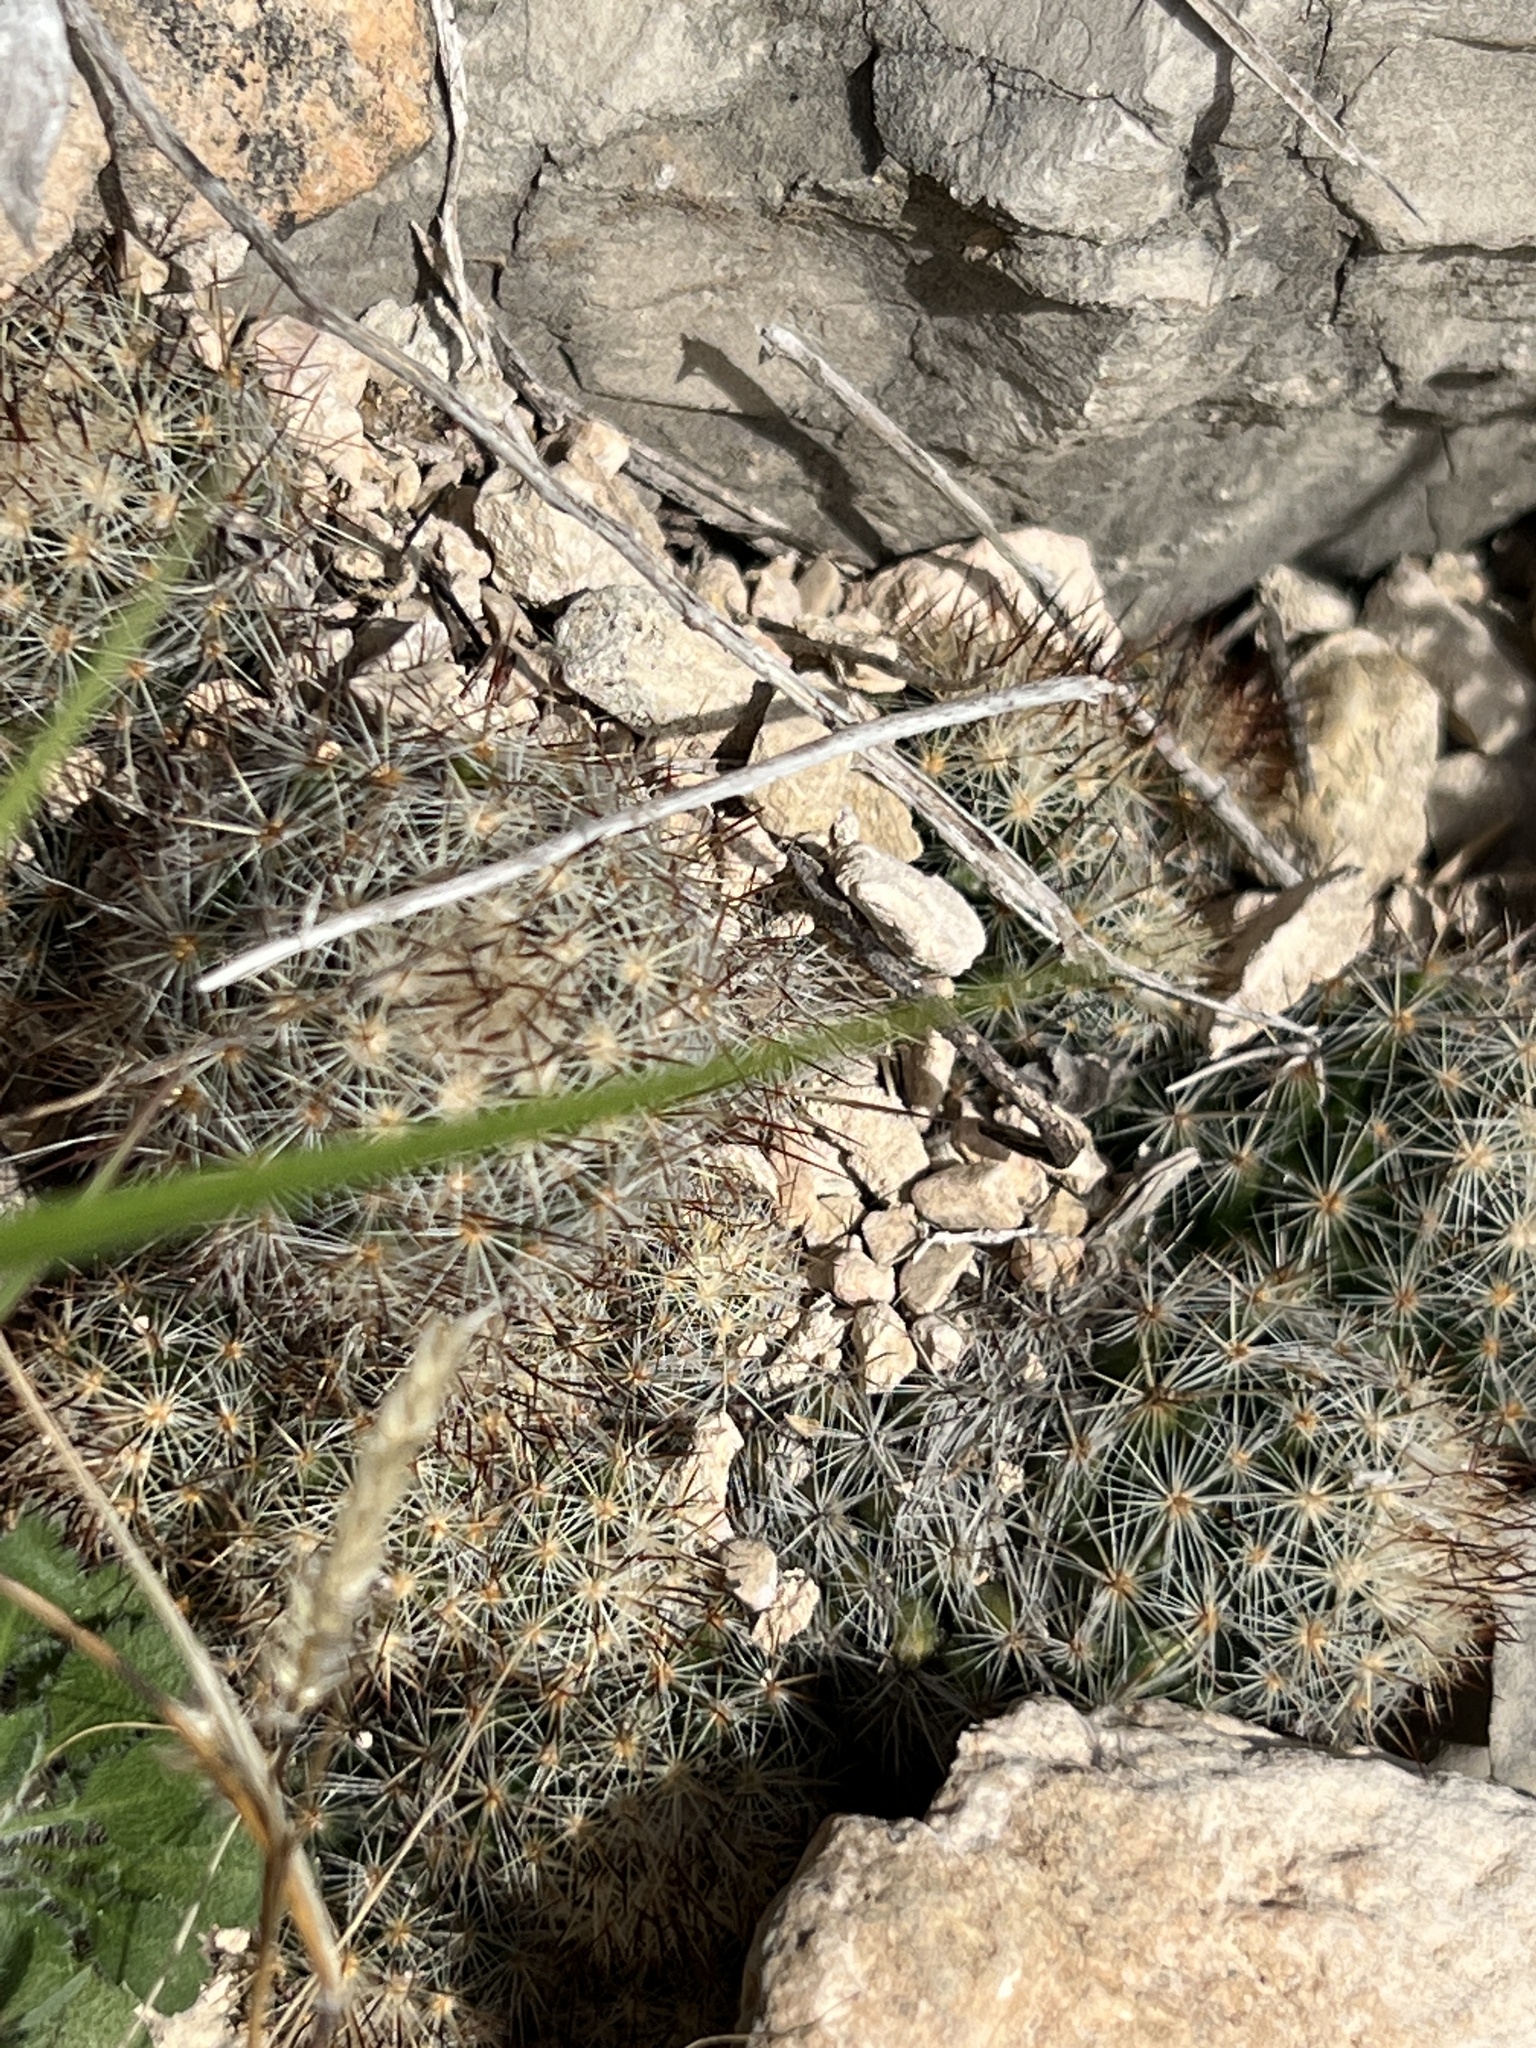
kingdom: Plantae
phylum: Tracheophyta
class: Magnoliopsida
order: Caryophyllales
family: Cactaceae
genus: Pelecyphora
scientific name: Pelecyphora emskoetteriana
